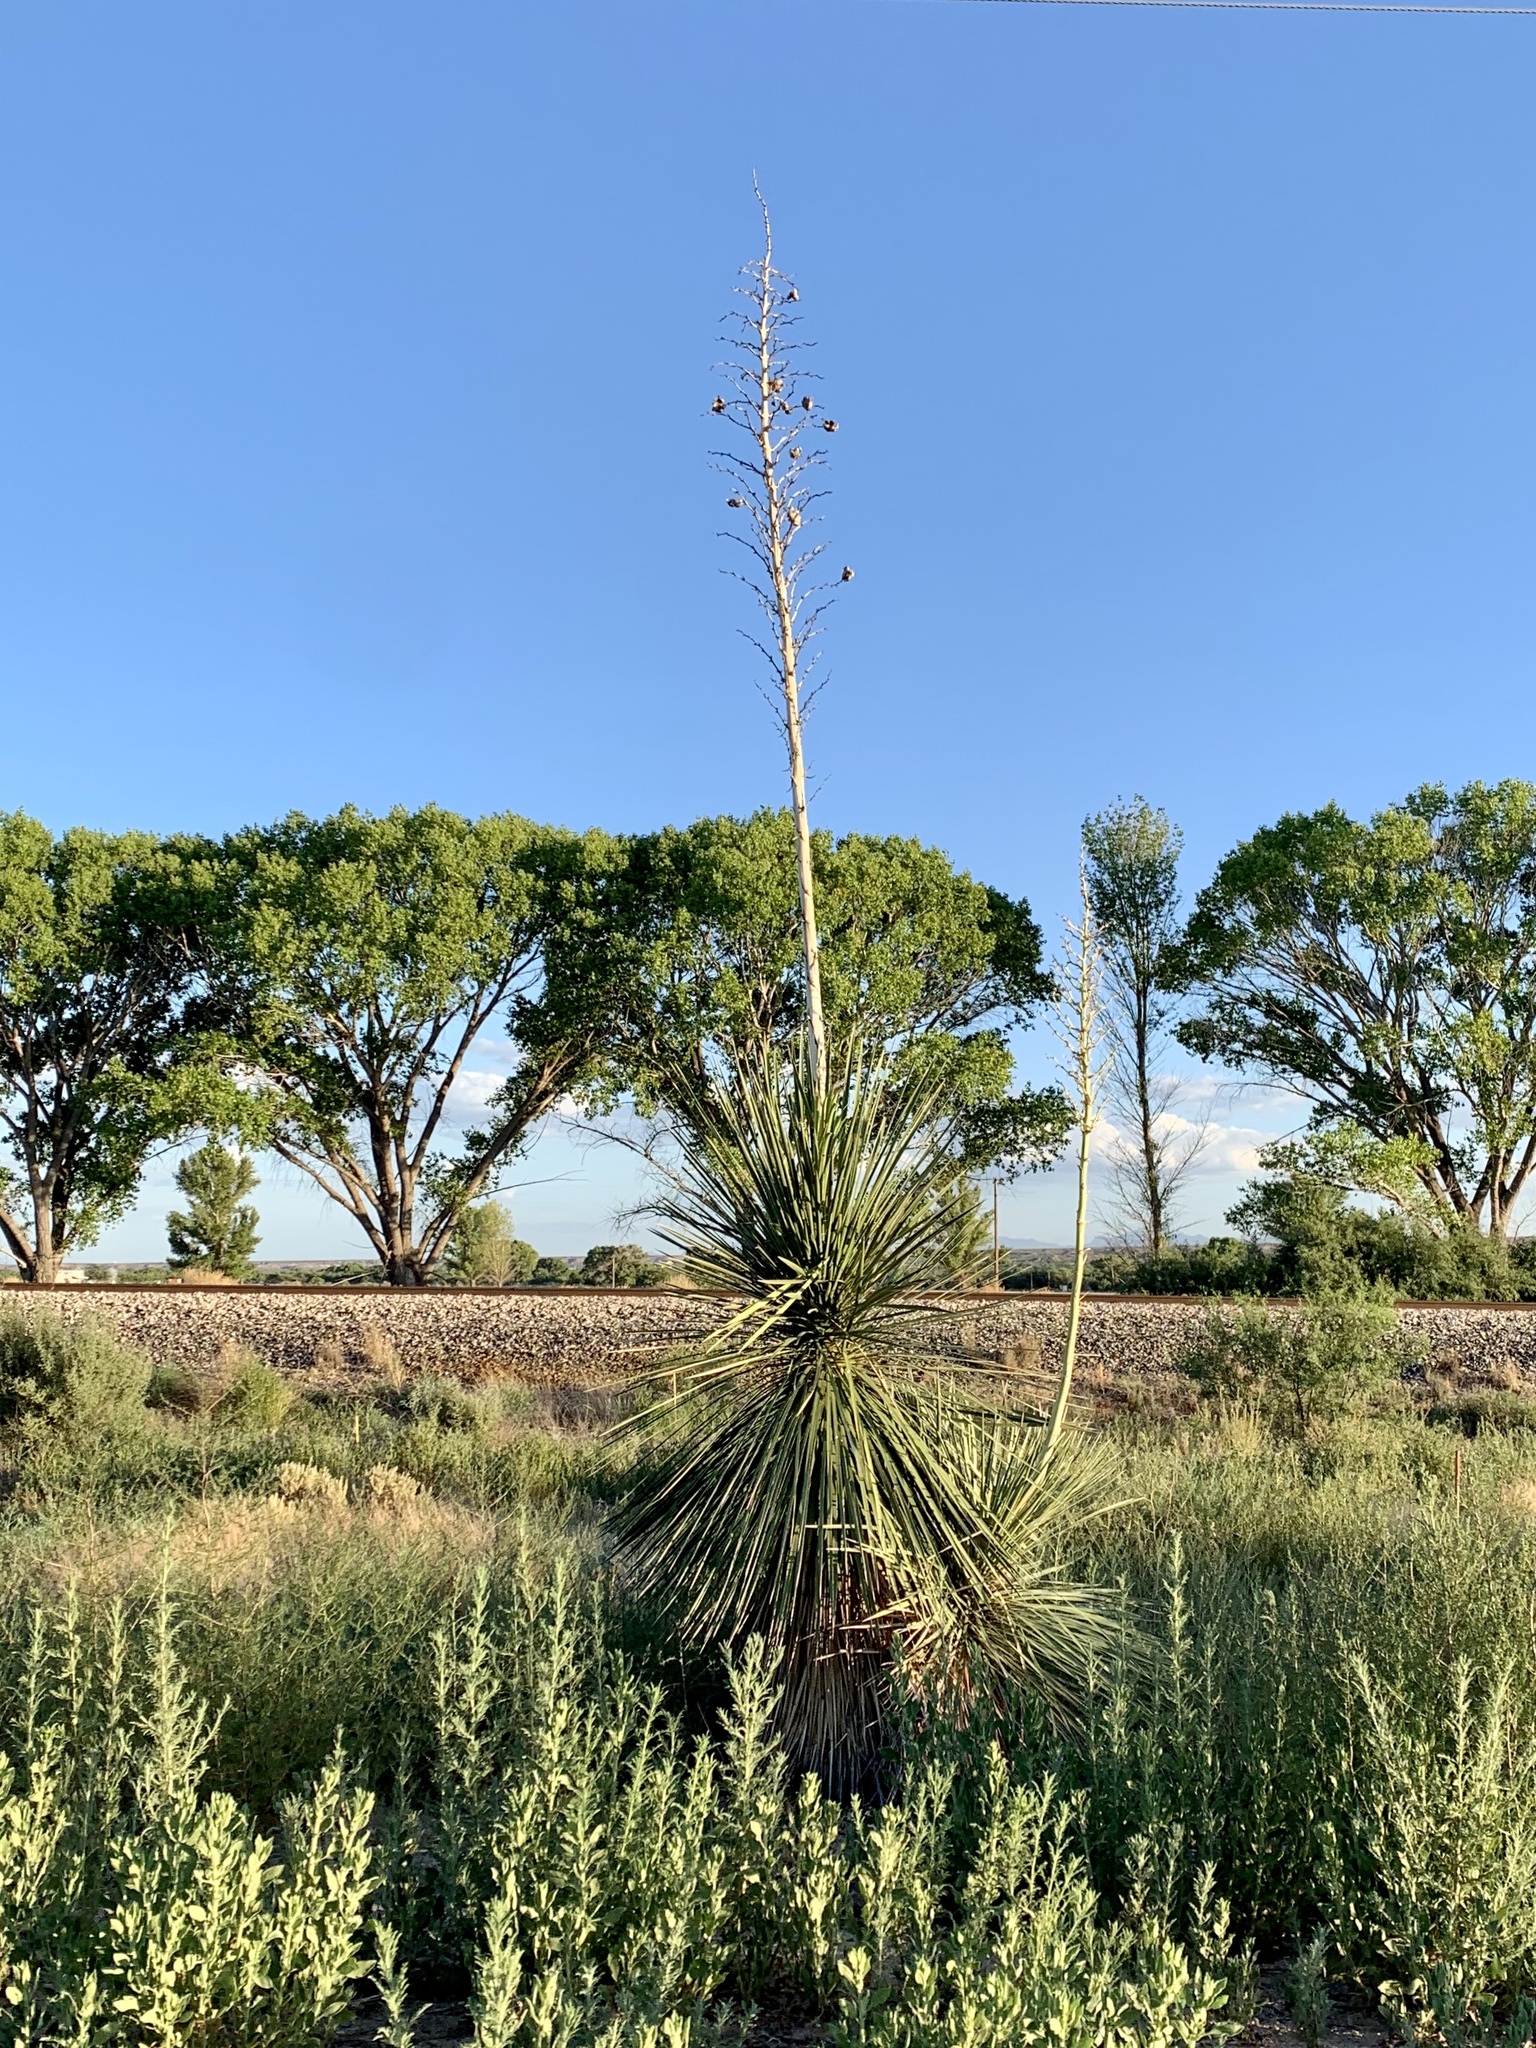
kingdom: Plantae
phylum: Tracheophyta
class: Liliopsida
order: Asparagales
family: Asparagaceae
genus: Yucca
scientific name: Yucca elata
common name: Palmella
